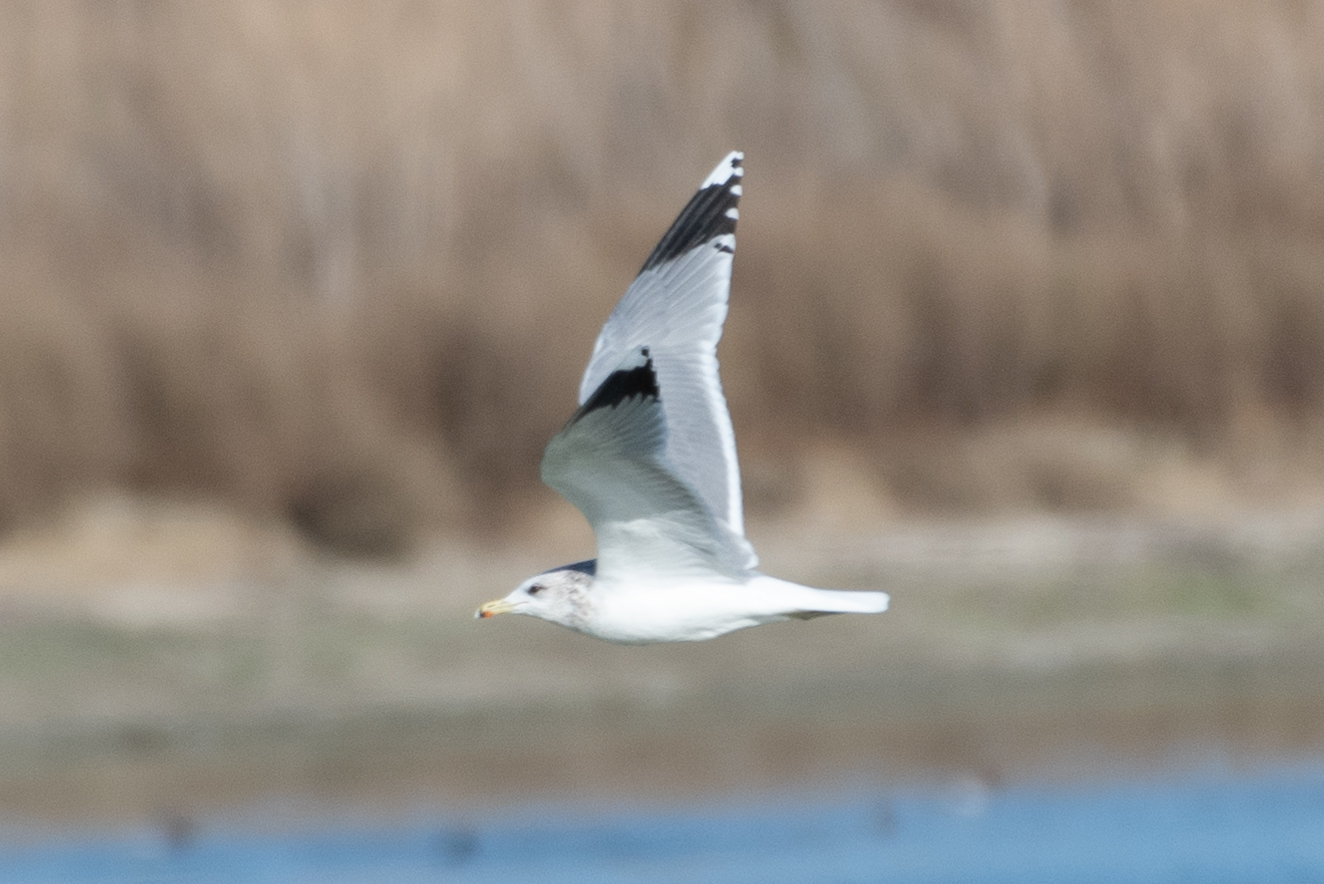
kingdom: Animalia
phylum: Chordata
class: Aves
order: Charadriiformes
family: Laridae
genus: Larus
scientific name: Larus californicus
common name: California gull
